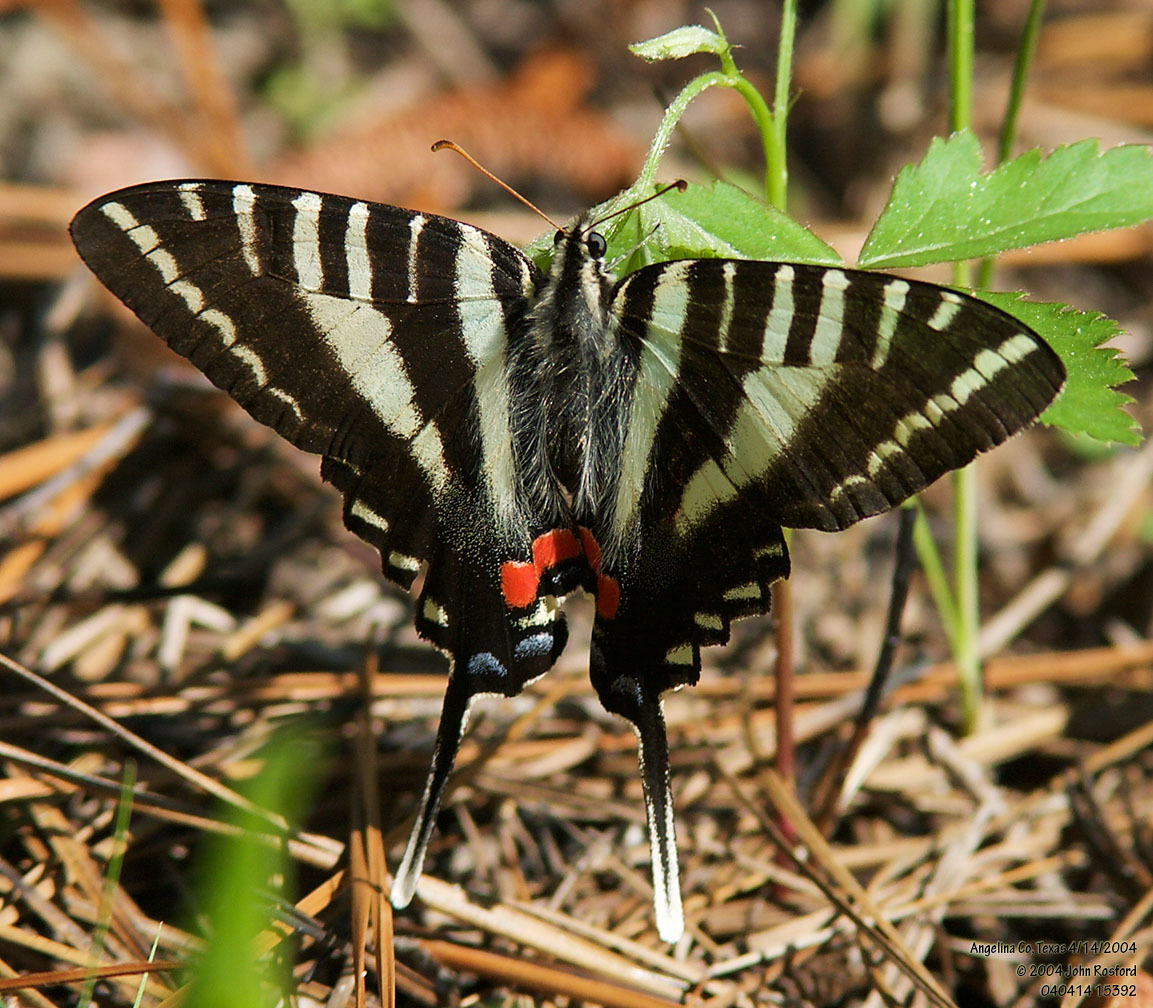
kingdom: Animalia
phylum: Arthropoda
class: Insecta
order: Lepidoptera
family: Papilionidae
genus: Protographium
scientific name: Protographium marcellus
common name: Zebra swallowtail
